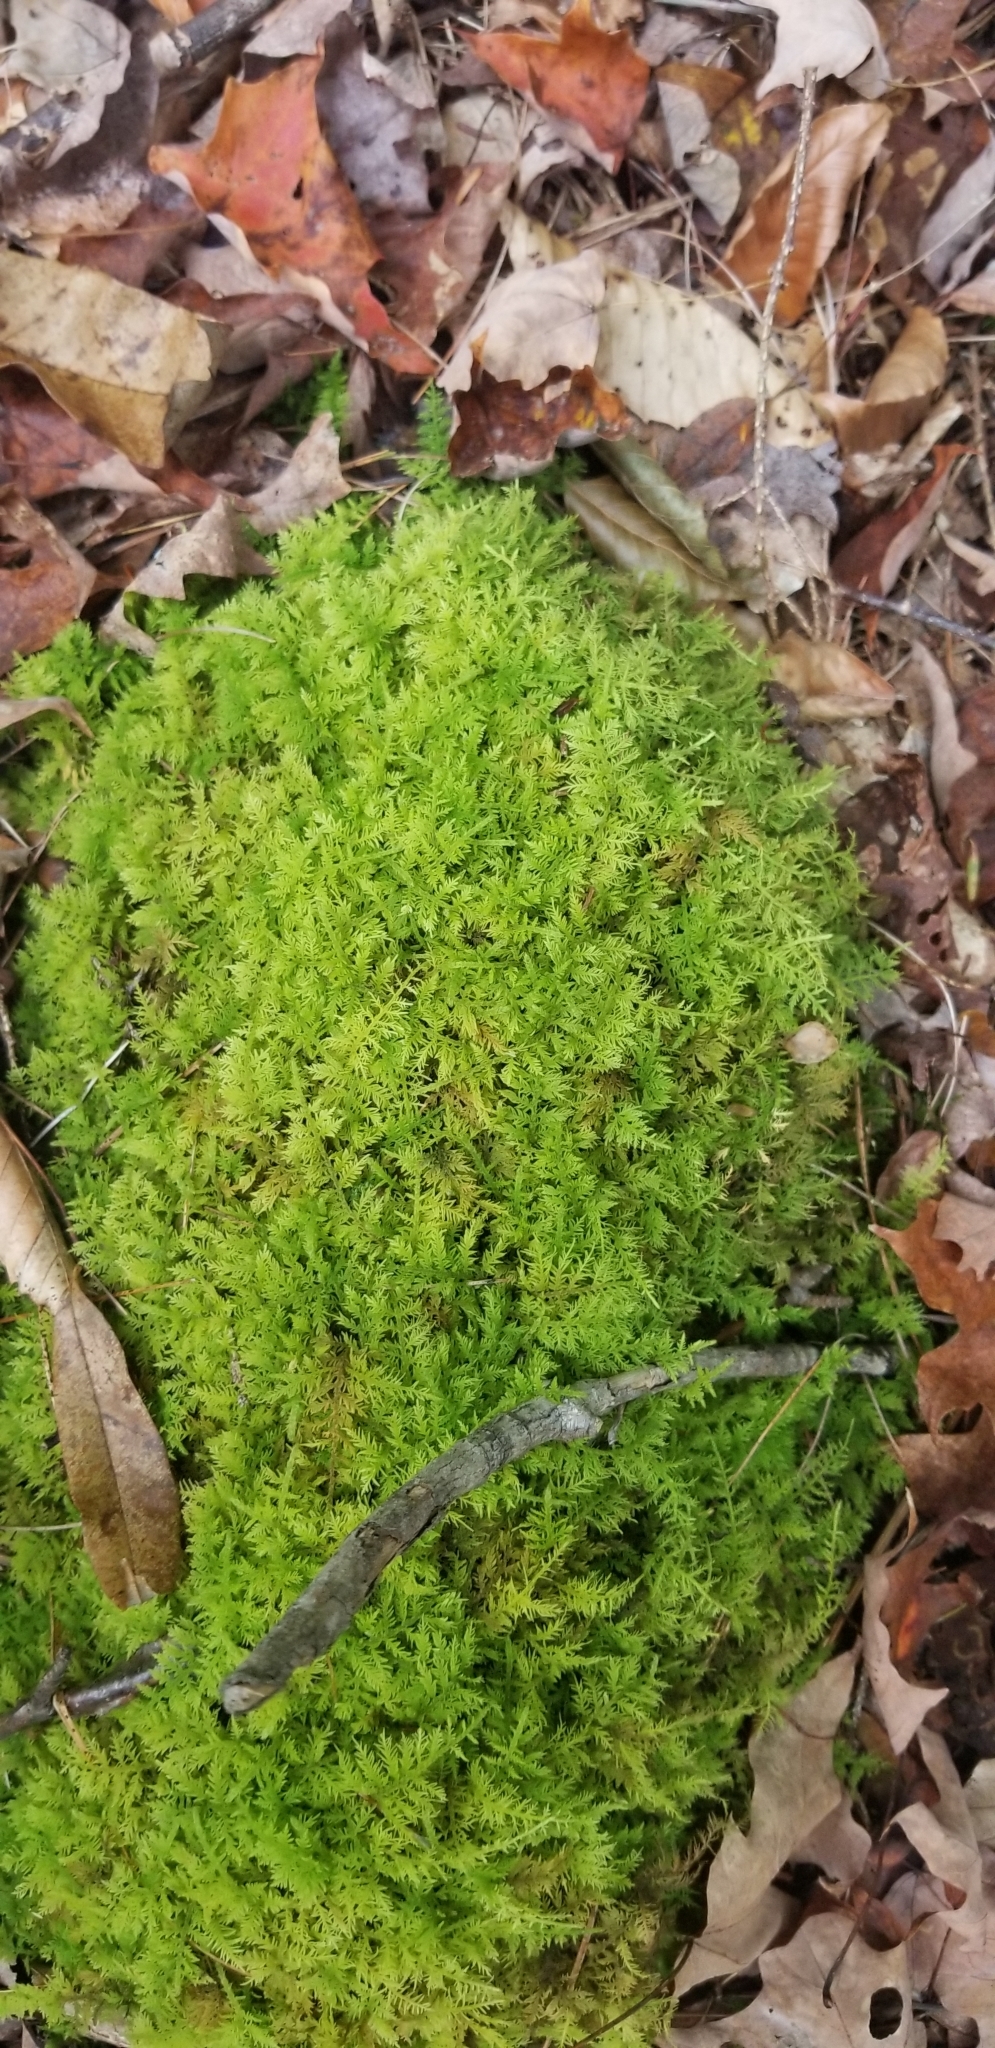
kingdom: Plantae
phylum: Bryophyta
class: Bryopsida
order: Hypnales
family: Thuidiaceae
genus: Thuidium
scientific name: Thuidium delicatulum
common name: Delicate fern moss
